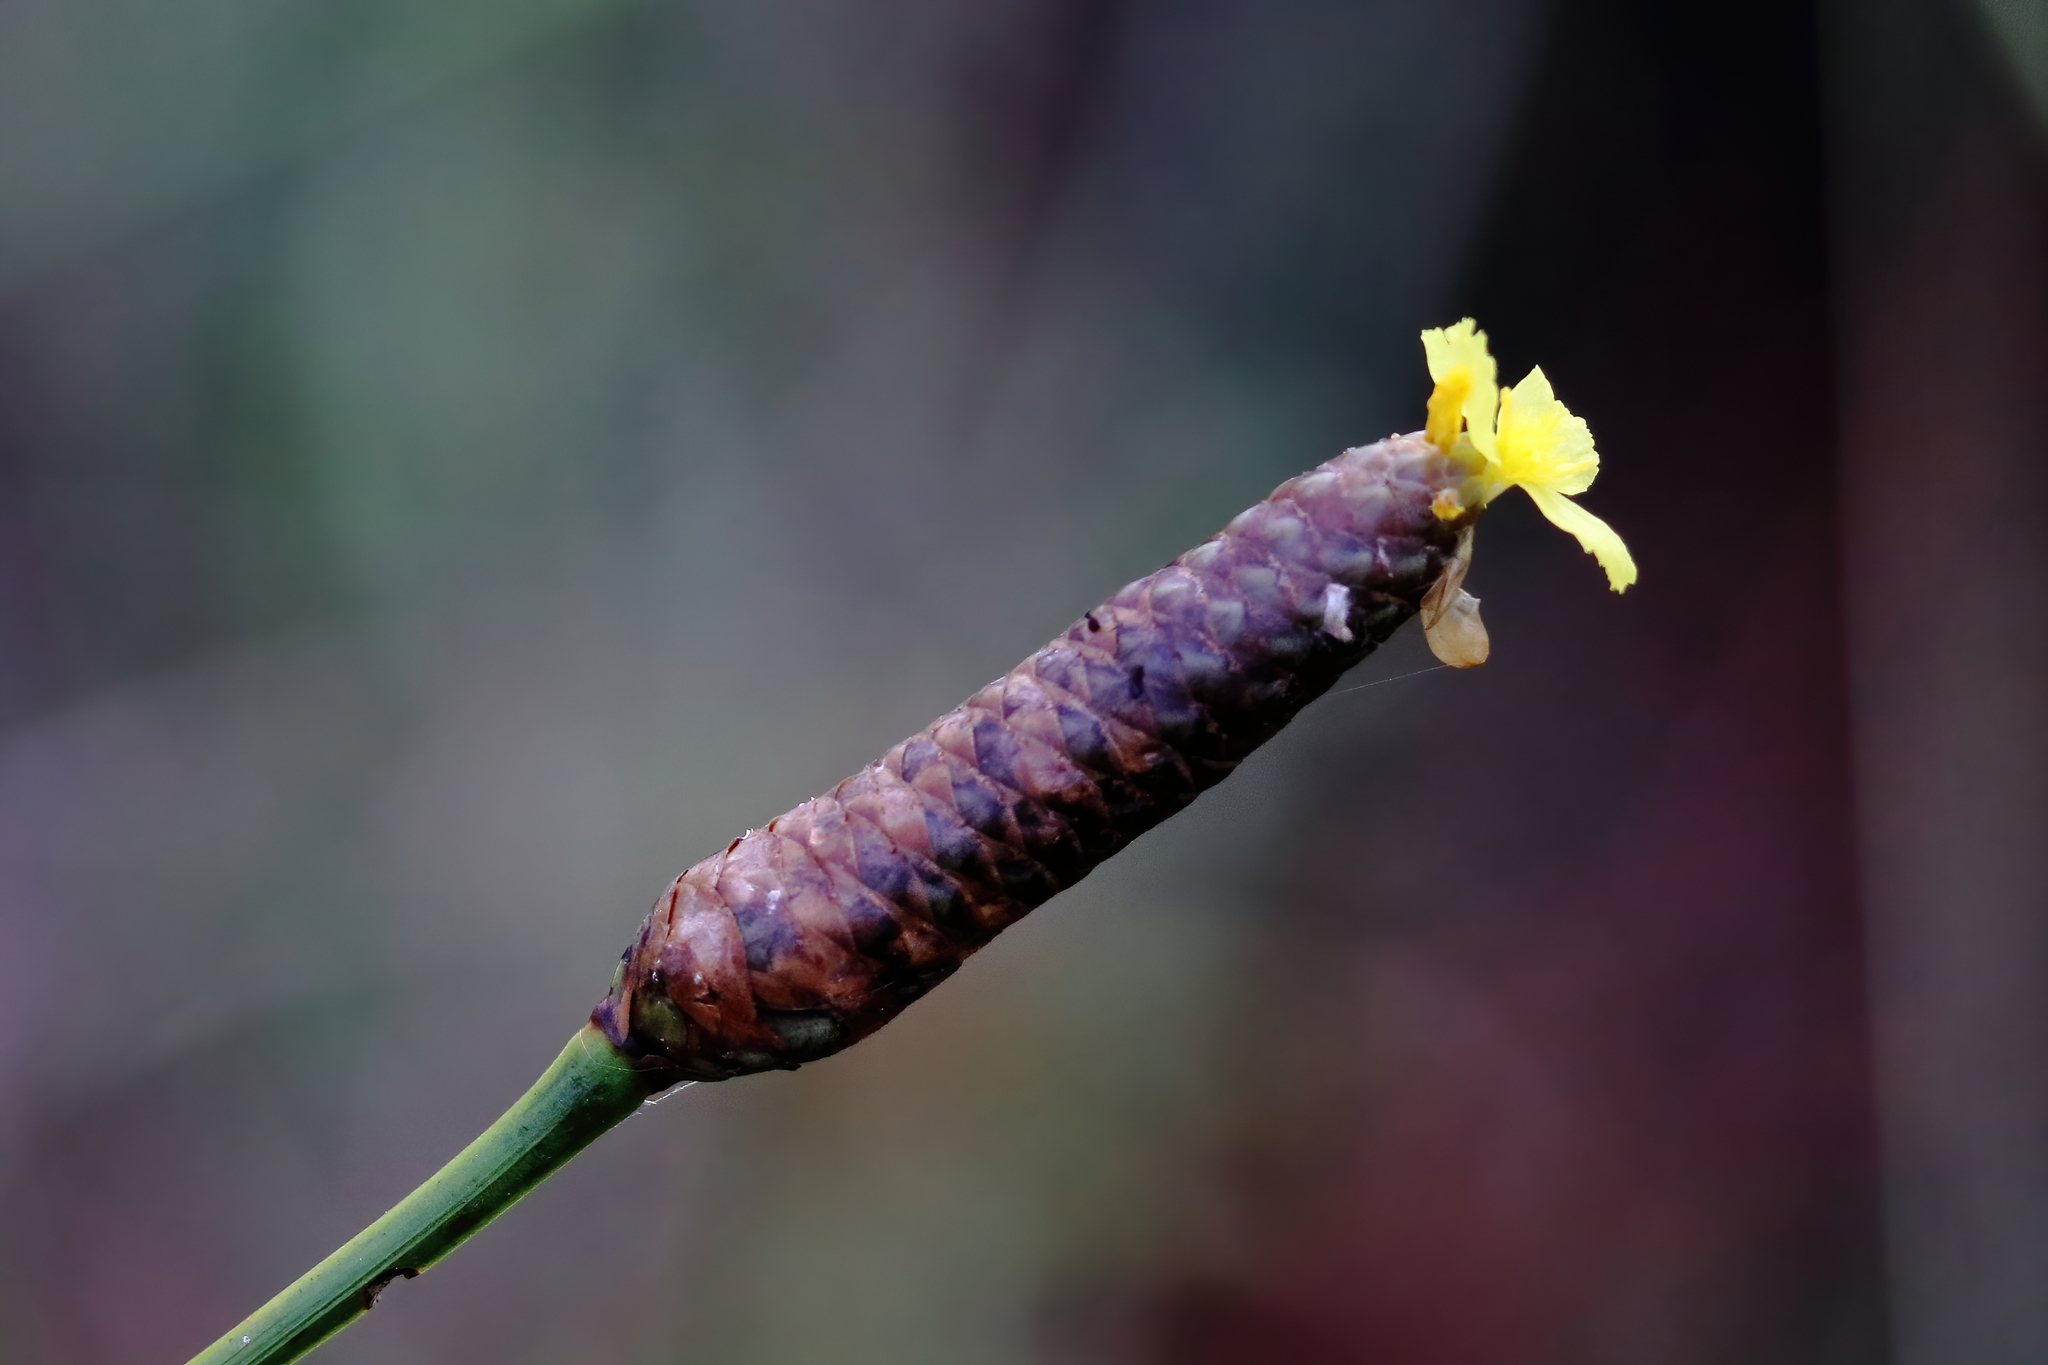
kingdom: Plantae
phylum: Tracheophyta
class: Liliopsida
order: Poales
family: Xyridaceae
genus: Xyris
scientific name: Xyris caroliniana
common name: Carolina yellow-eyed-grass
